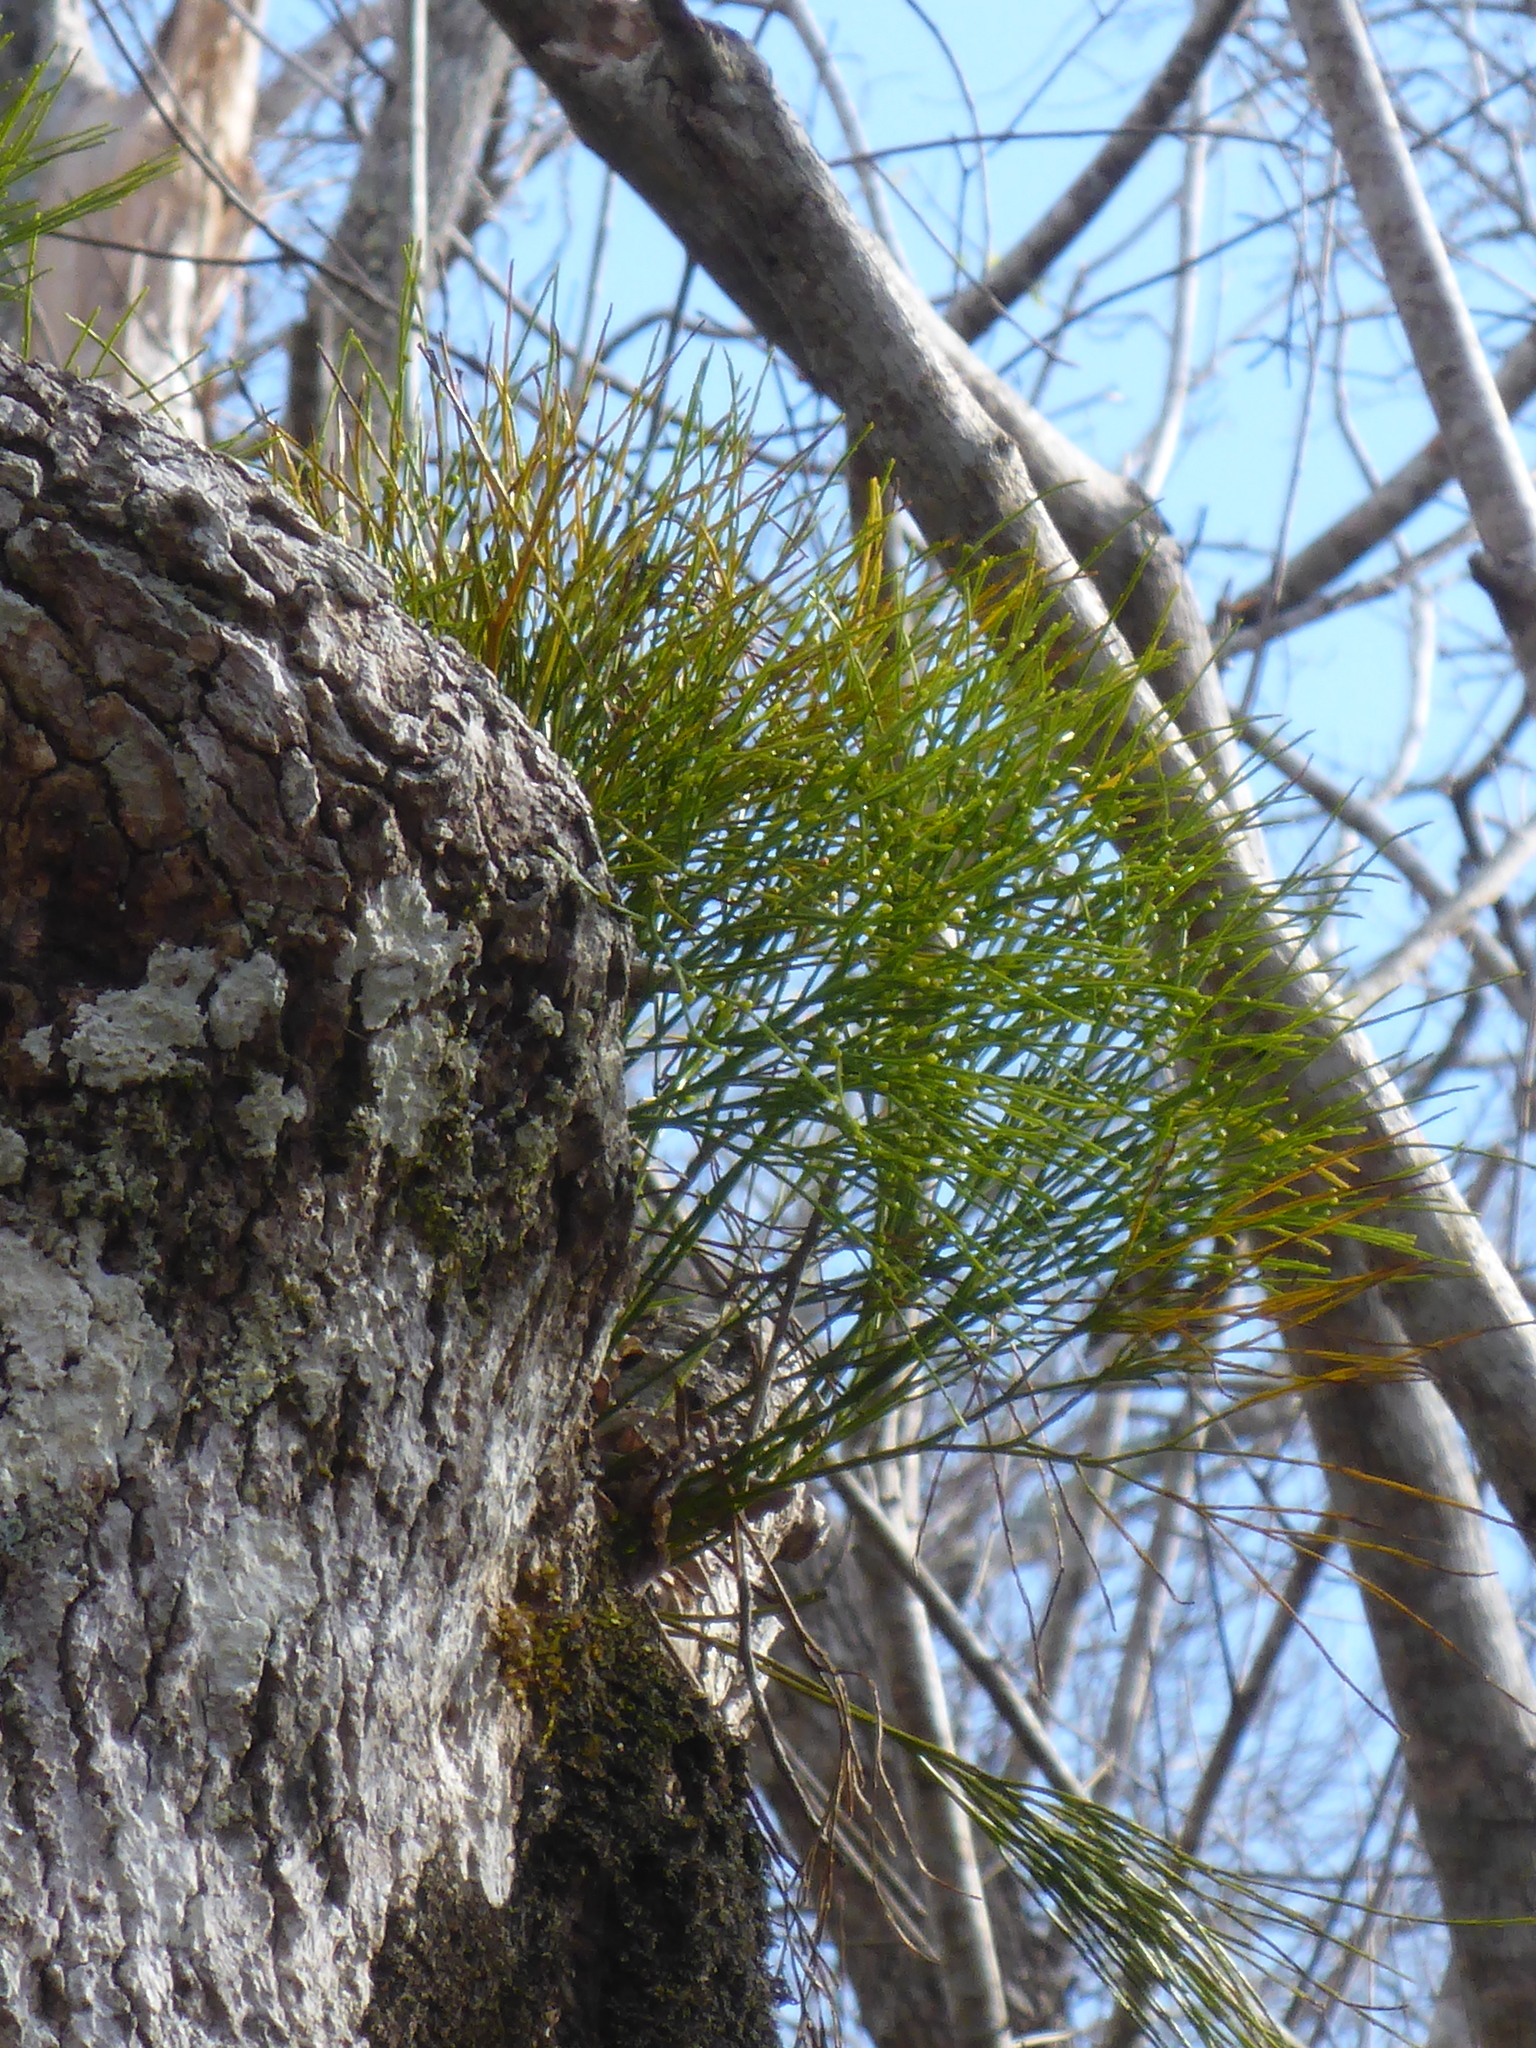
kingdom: Plantae
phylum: Tracheophyta
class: Polypodiopsida
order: Psilotales
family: Psilotaceae
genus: Psilotum
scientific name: Psilotum nudum
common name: Skeleton fork fern
